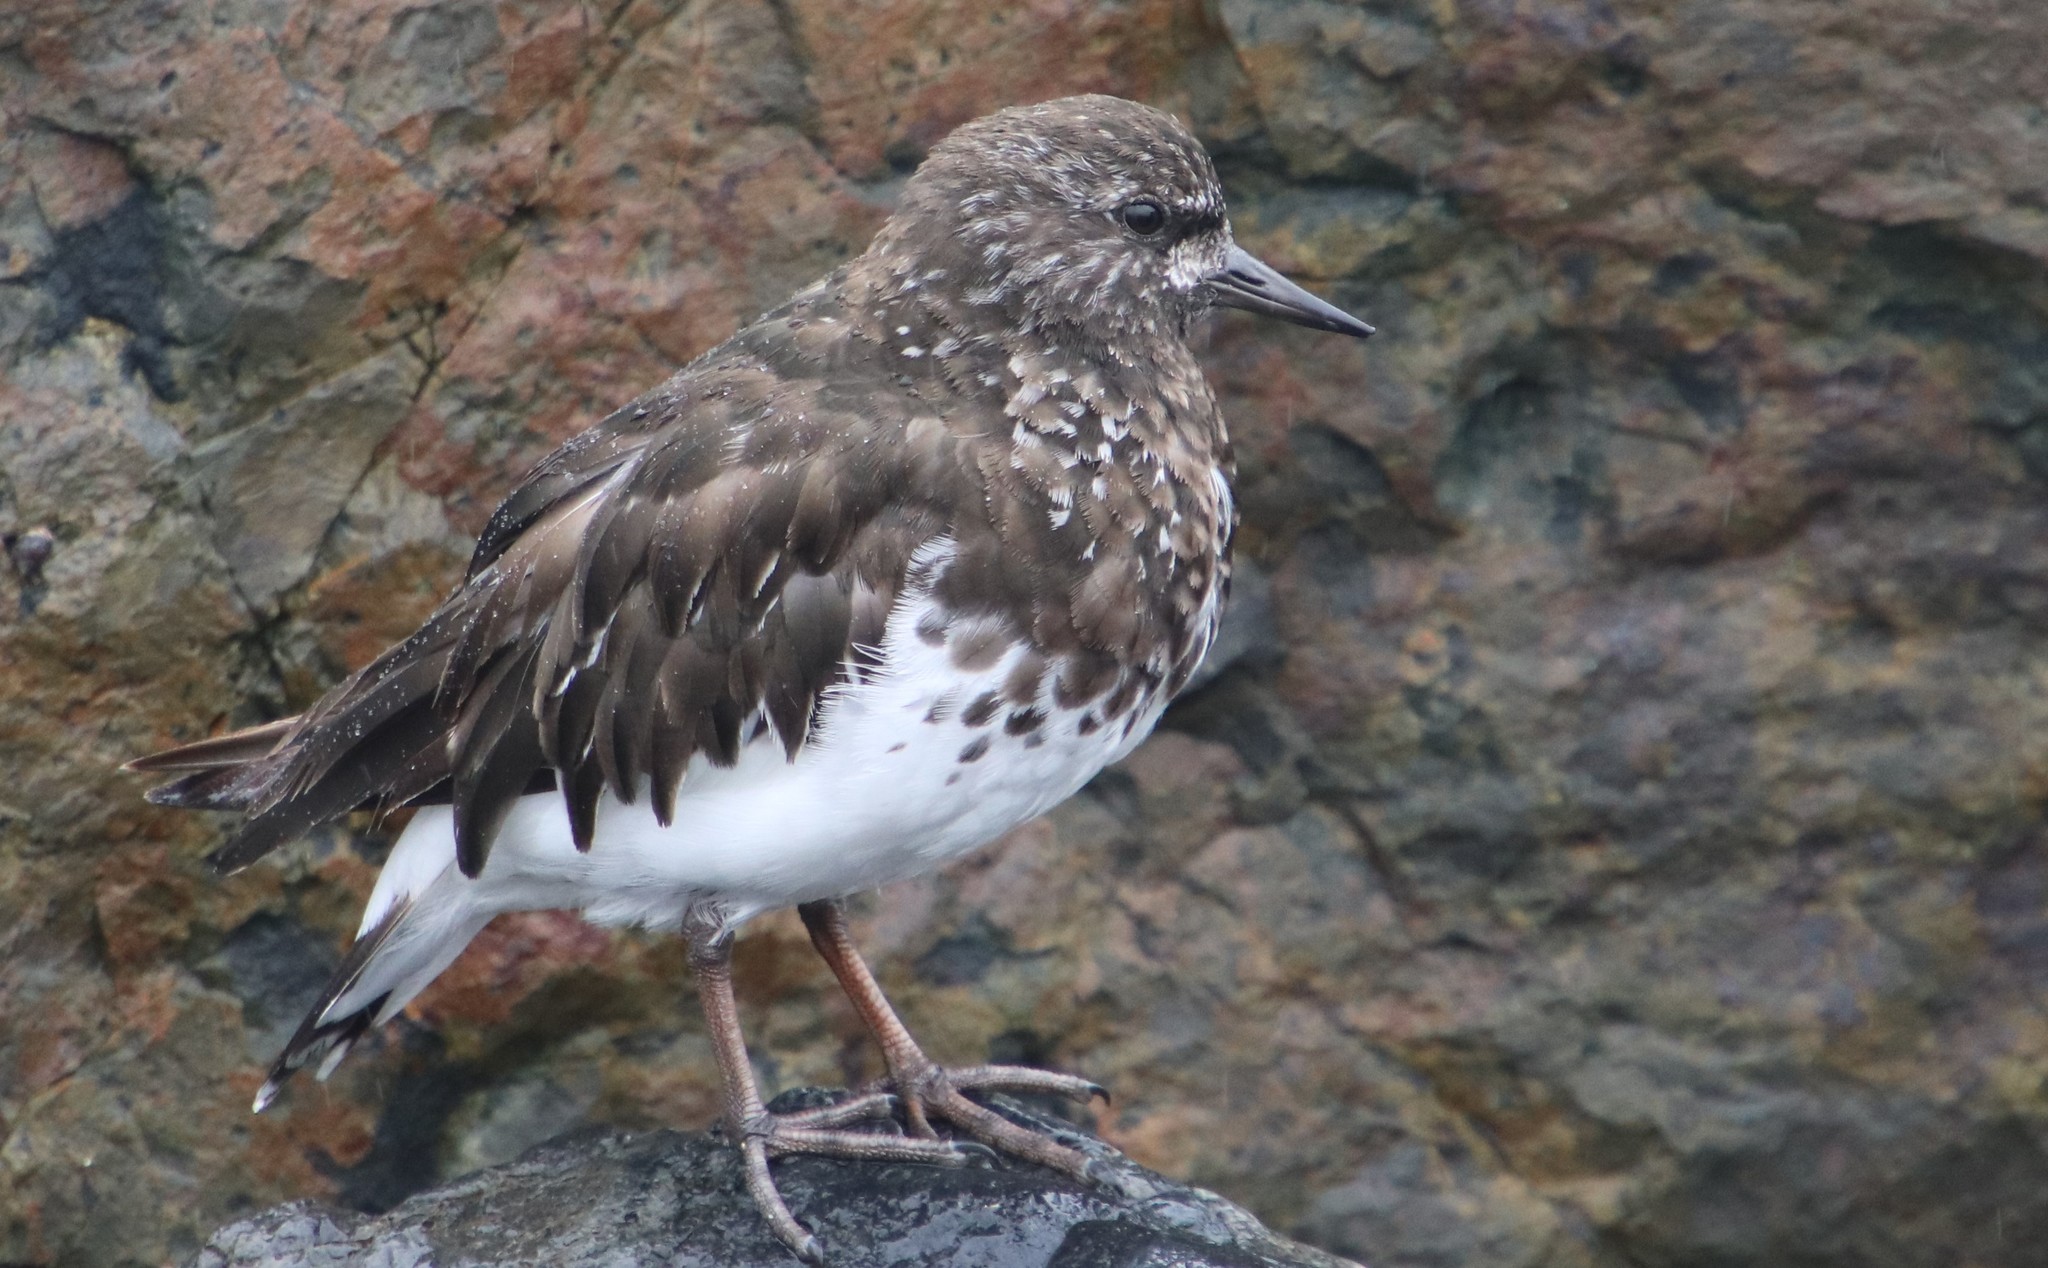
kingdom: Animalia
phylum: Chordata
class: Aves
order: Charadriiformes
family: Scolopacidae
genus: Arenaria
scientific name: Arenaria melanocephala
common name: Black turnstone
